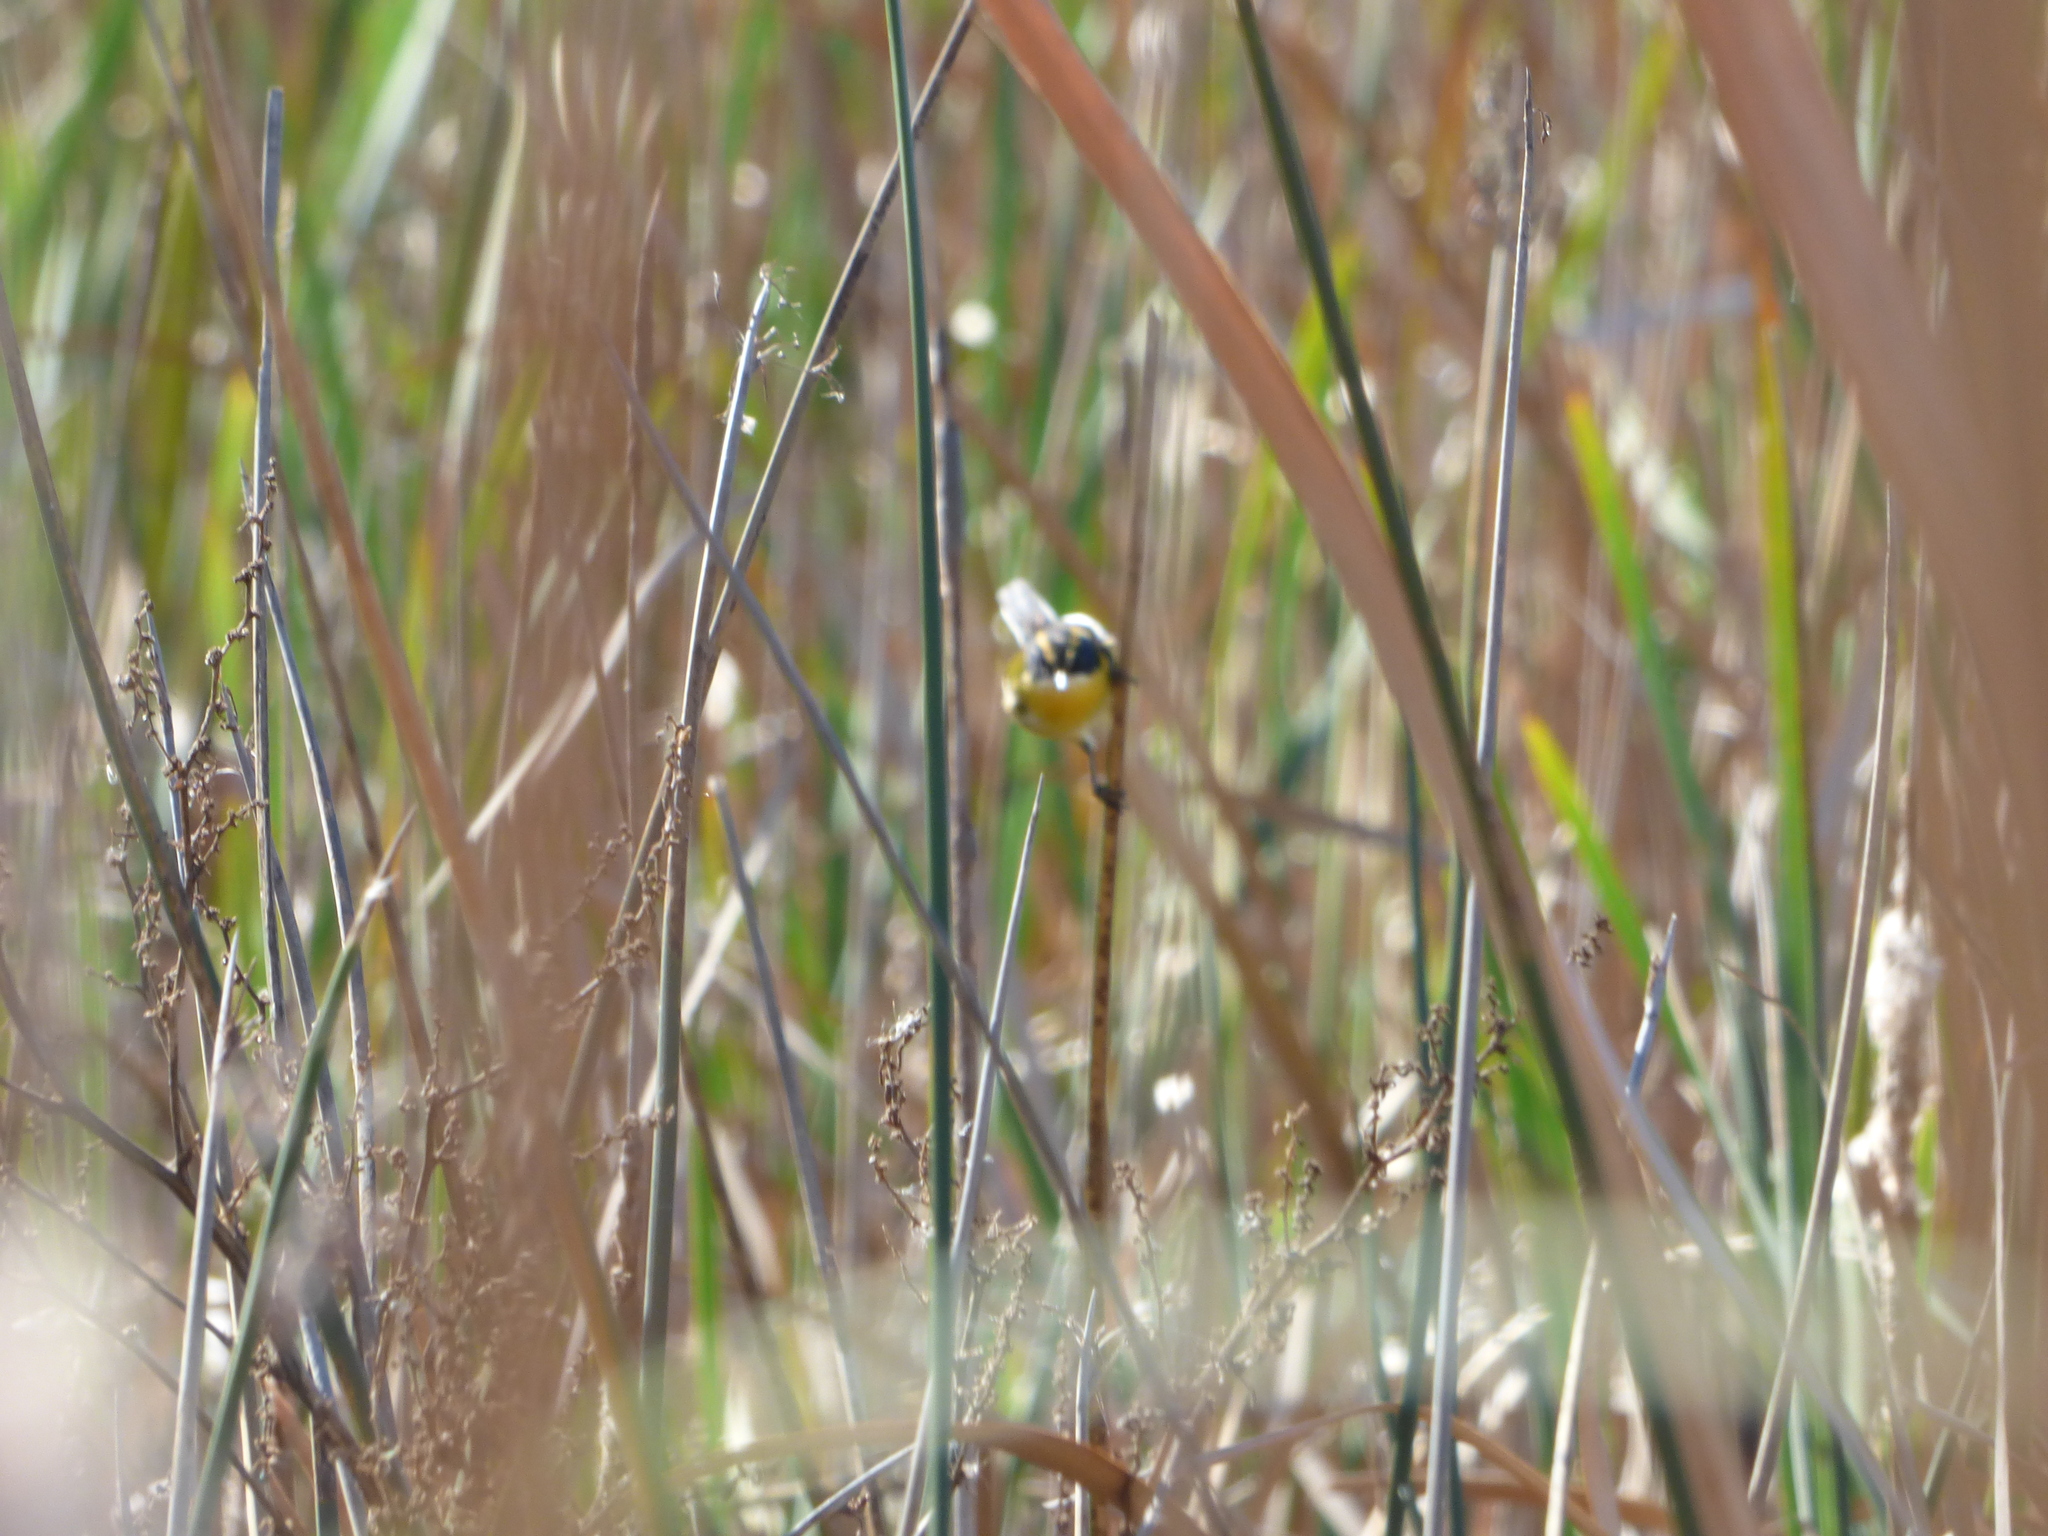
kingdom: Animalia
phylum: Chordata
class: Aves
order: Passeriformes
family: Tyrannidae
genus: Tachuris
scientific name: Tachuris rubrigastra
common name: Many-colored rush tyrant
